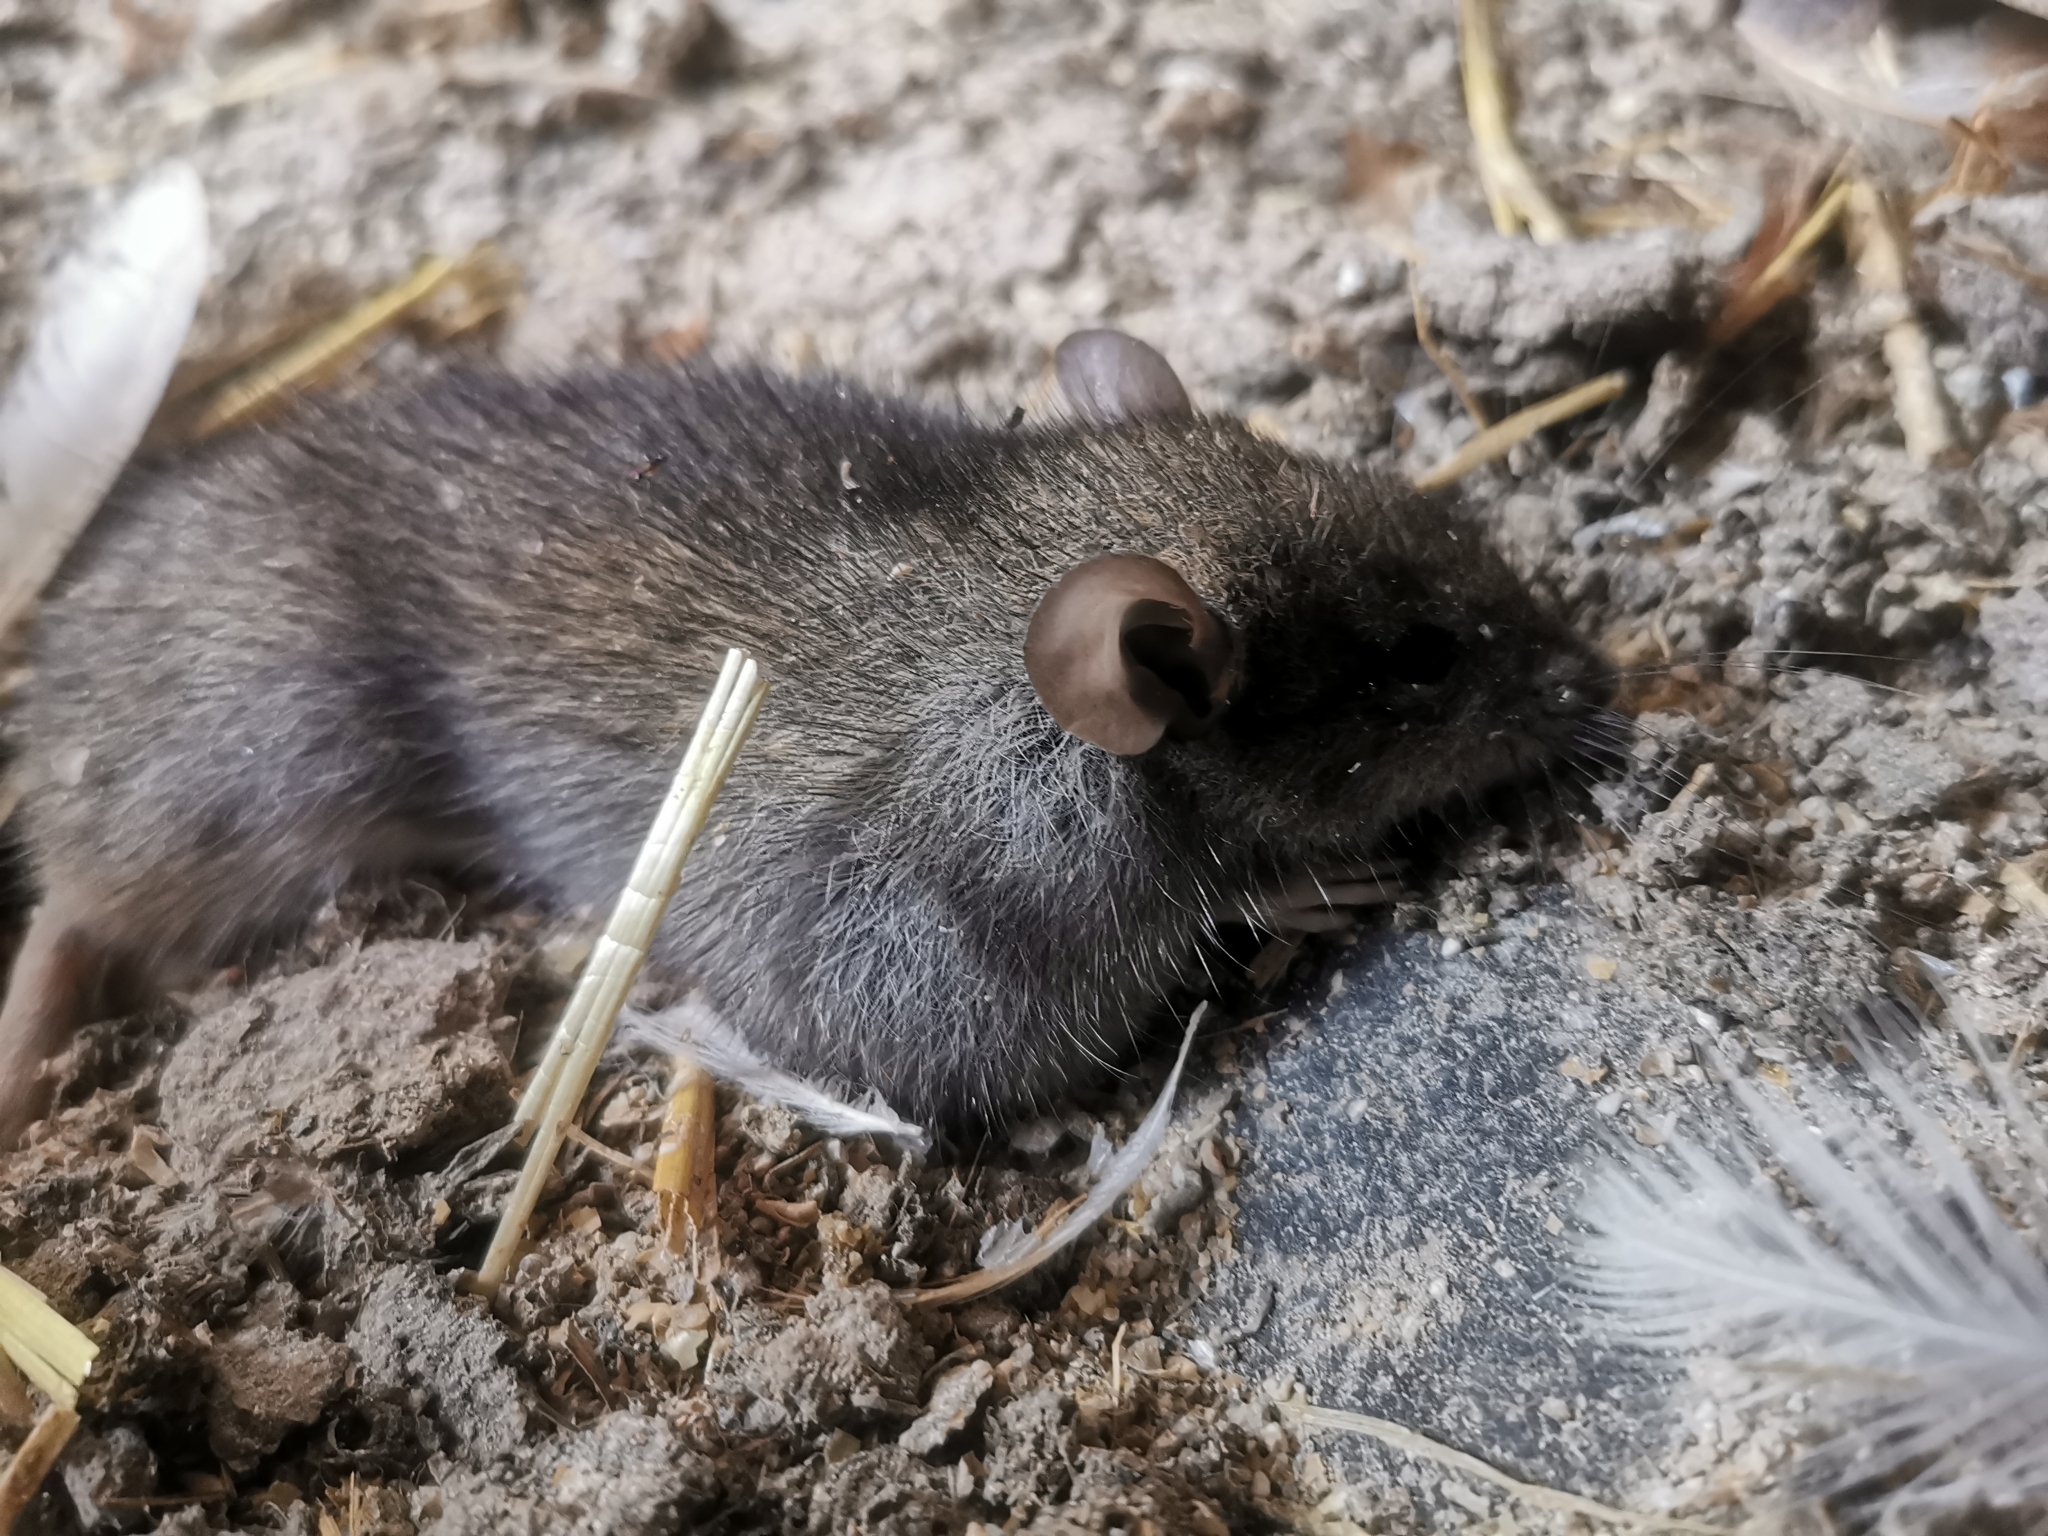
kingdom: Animalia
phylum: Chordata
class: Mammalia
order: Rodentia
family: Muridae
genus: Rattus
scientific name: Rattus rattus
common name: Black rat
